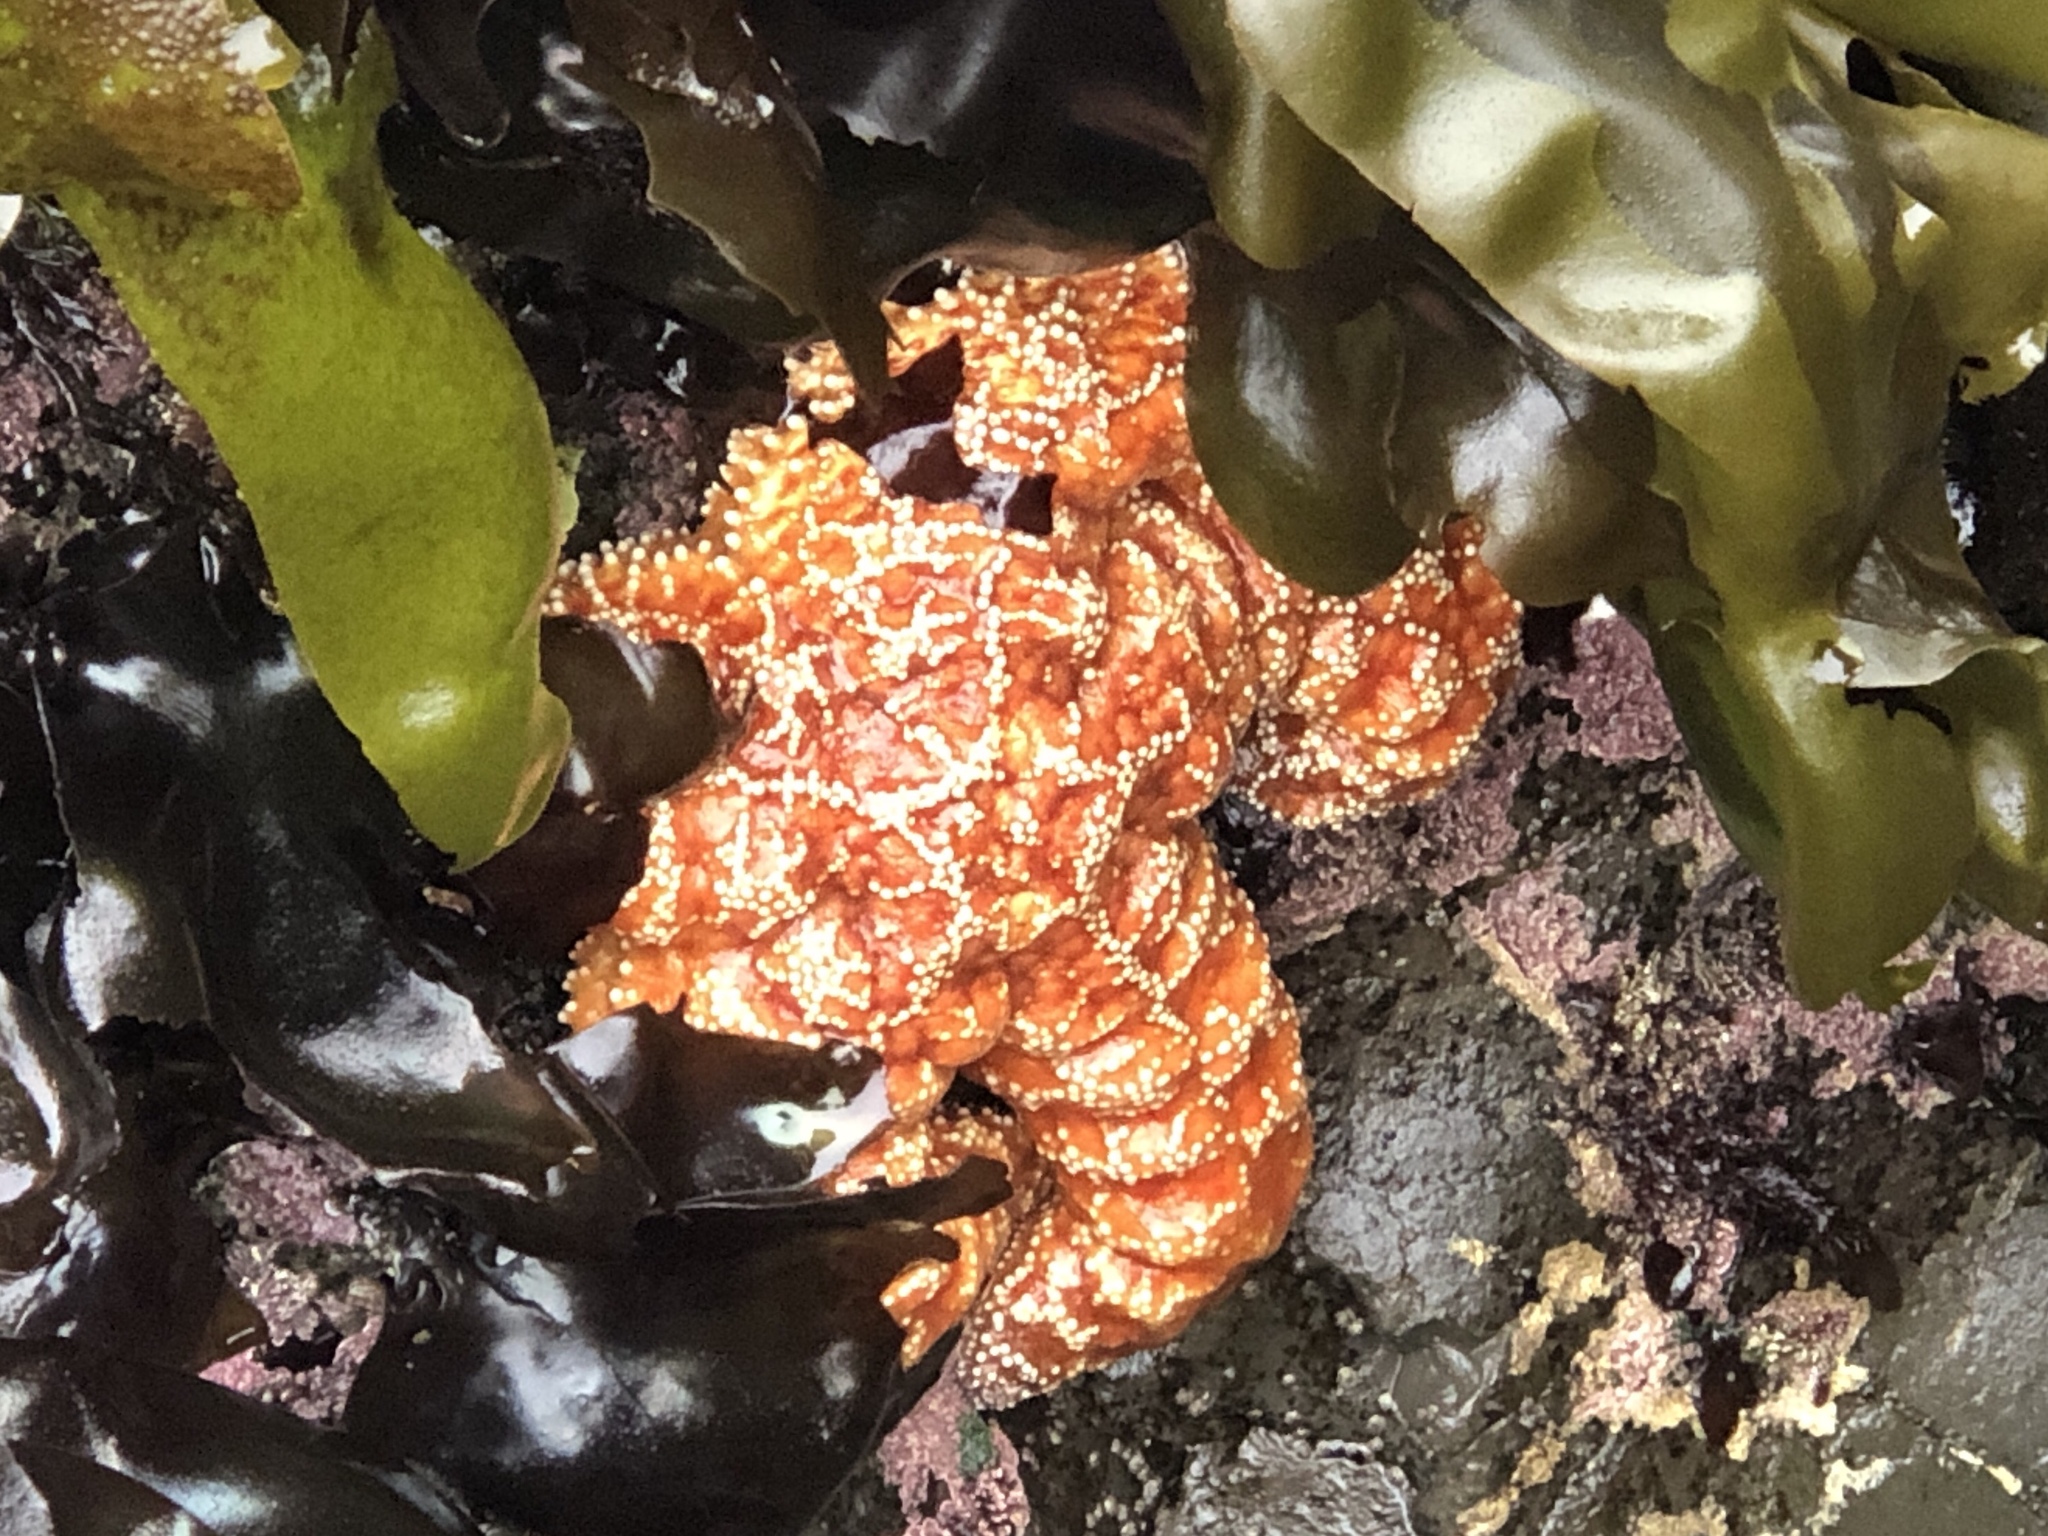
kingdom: Animalia
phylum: Echinodermata
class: Asteroidea
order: Forcipulatida
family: Asteriidae
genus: Pisaster
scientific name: Pisaster ochraceus
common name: Ochre stars
